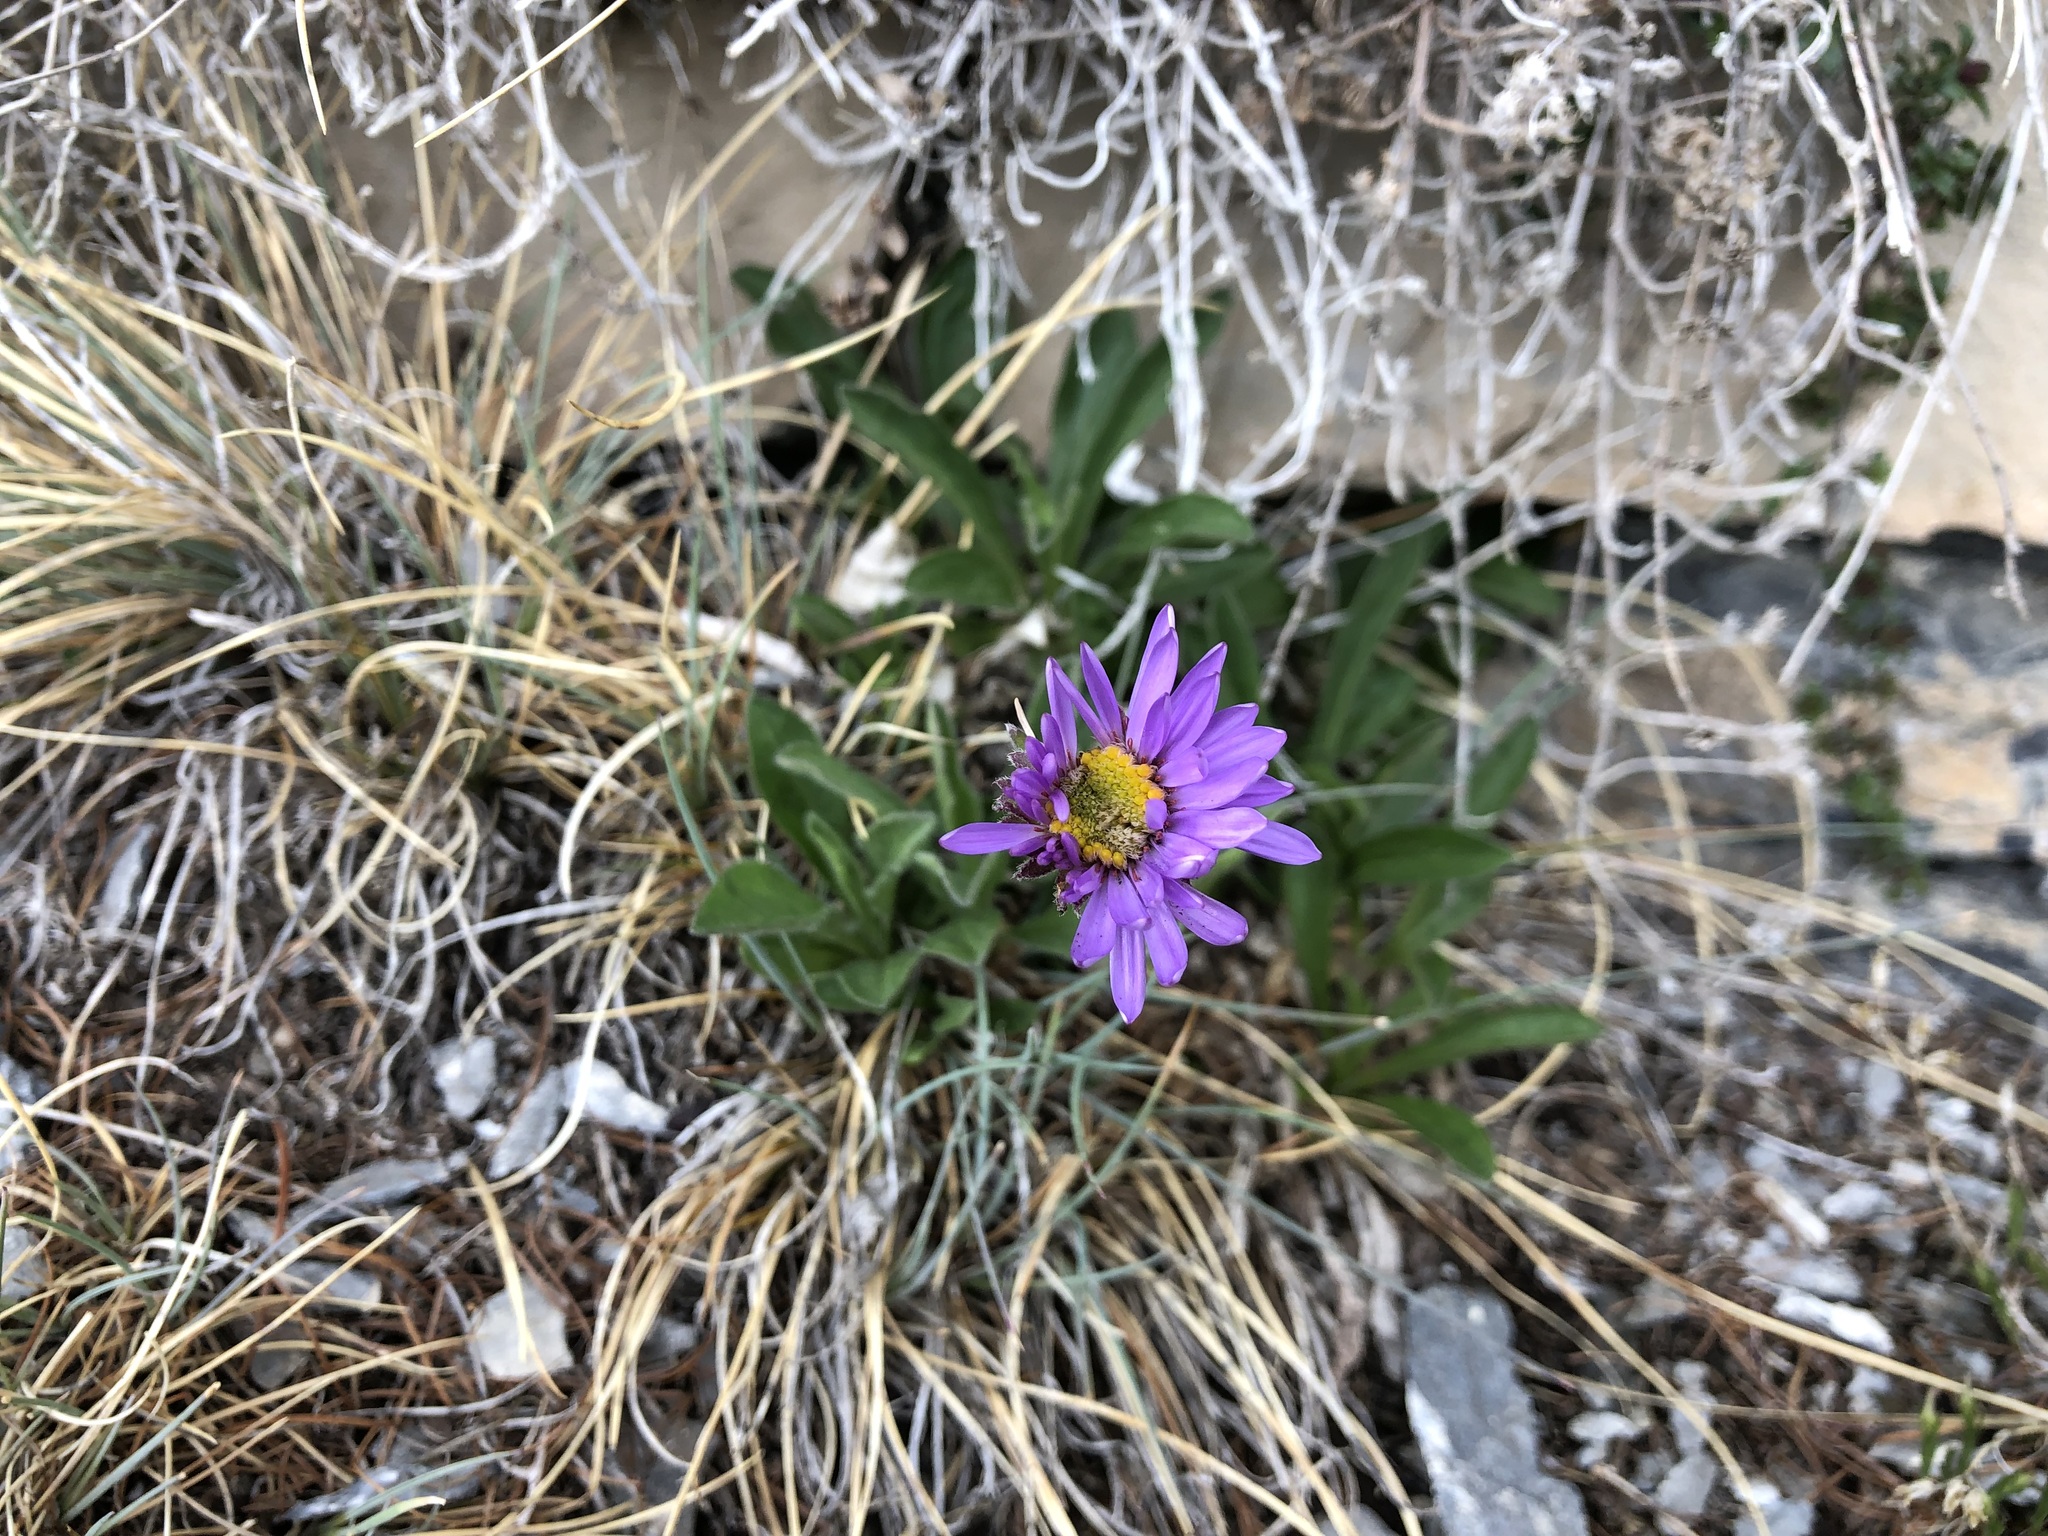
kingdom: Plantae
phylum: Tracheophyta
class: Magnoliopsida
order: Asterales
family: Asteraceae
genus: Aster
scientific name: Aster alpinus
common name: Alpine aster
